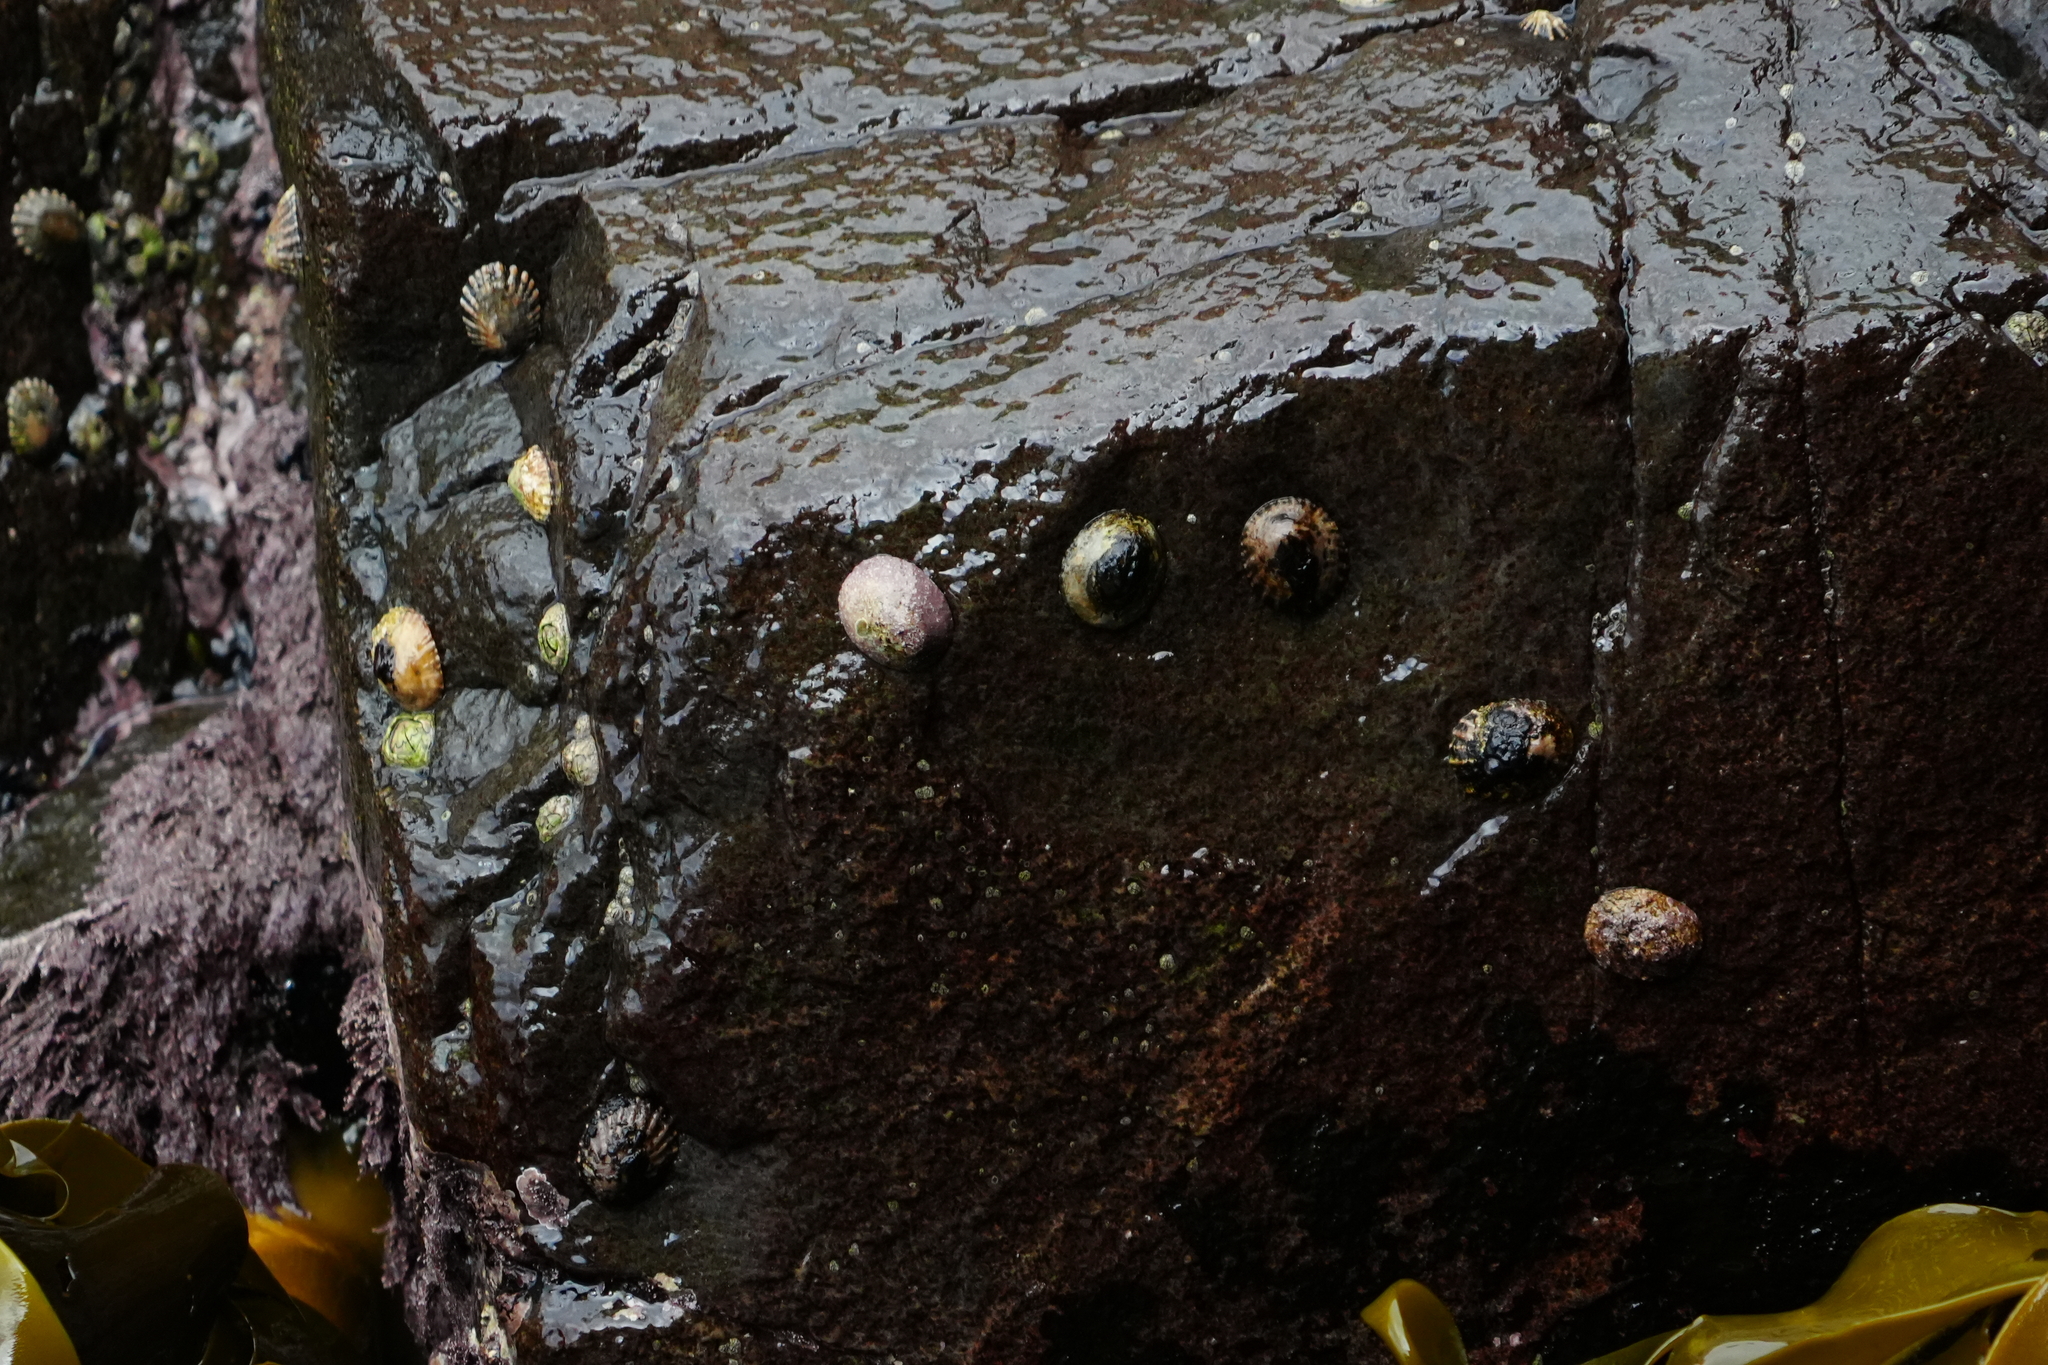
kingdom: Animalia
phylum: Mollusca
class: Gastropoda
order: Siphonariida
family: Siphonariidae
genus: Siphonaria
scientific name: Siphonaria diemenensis
